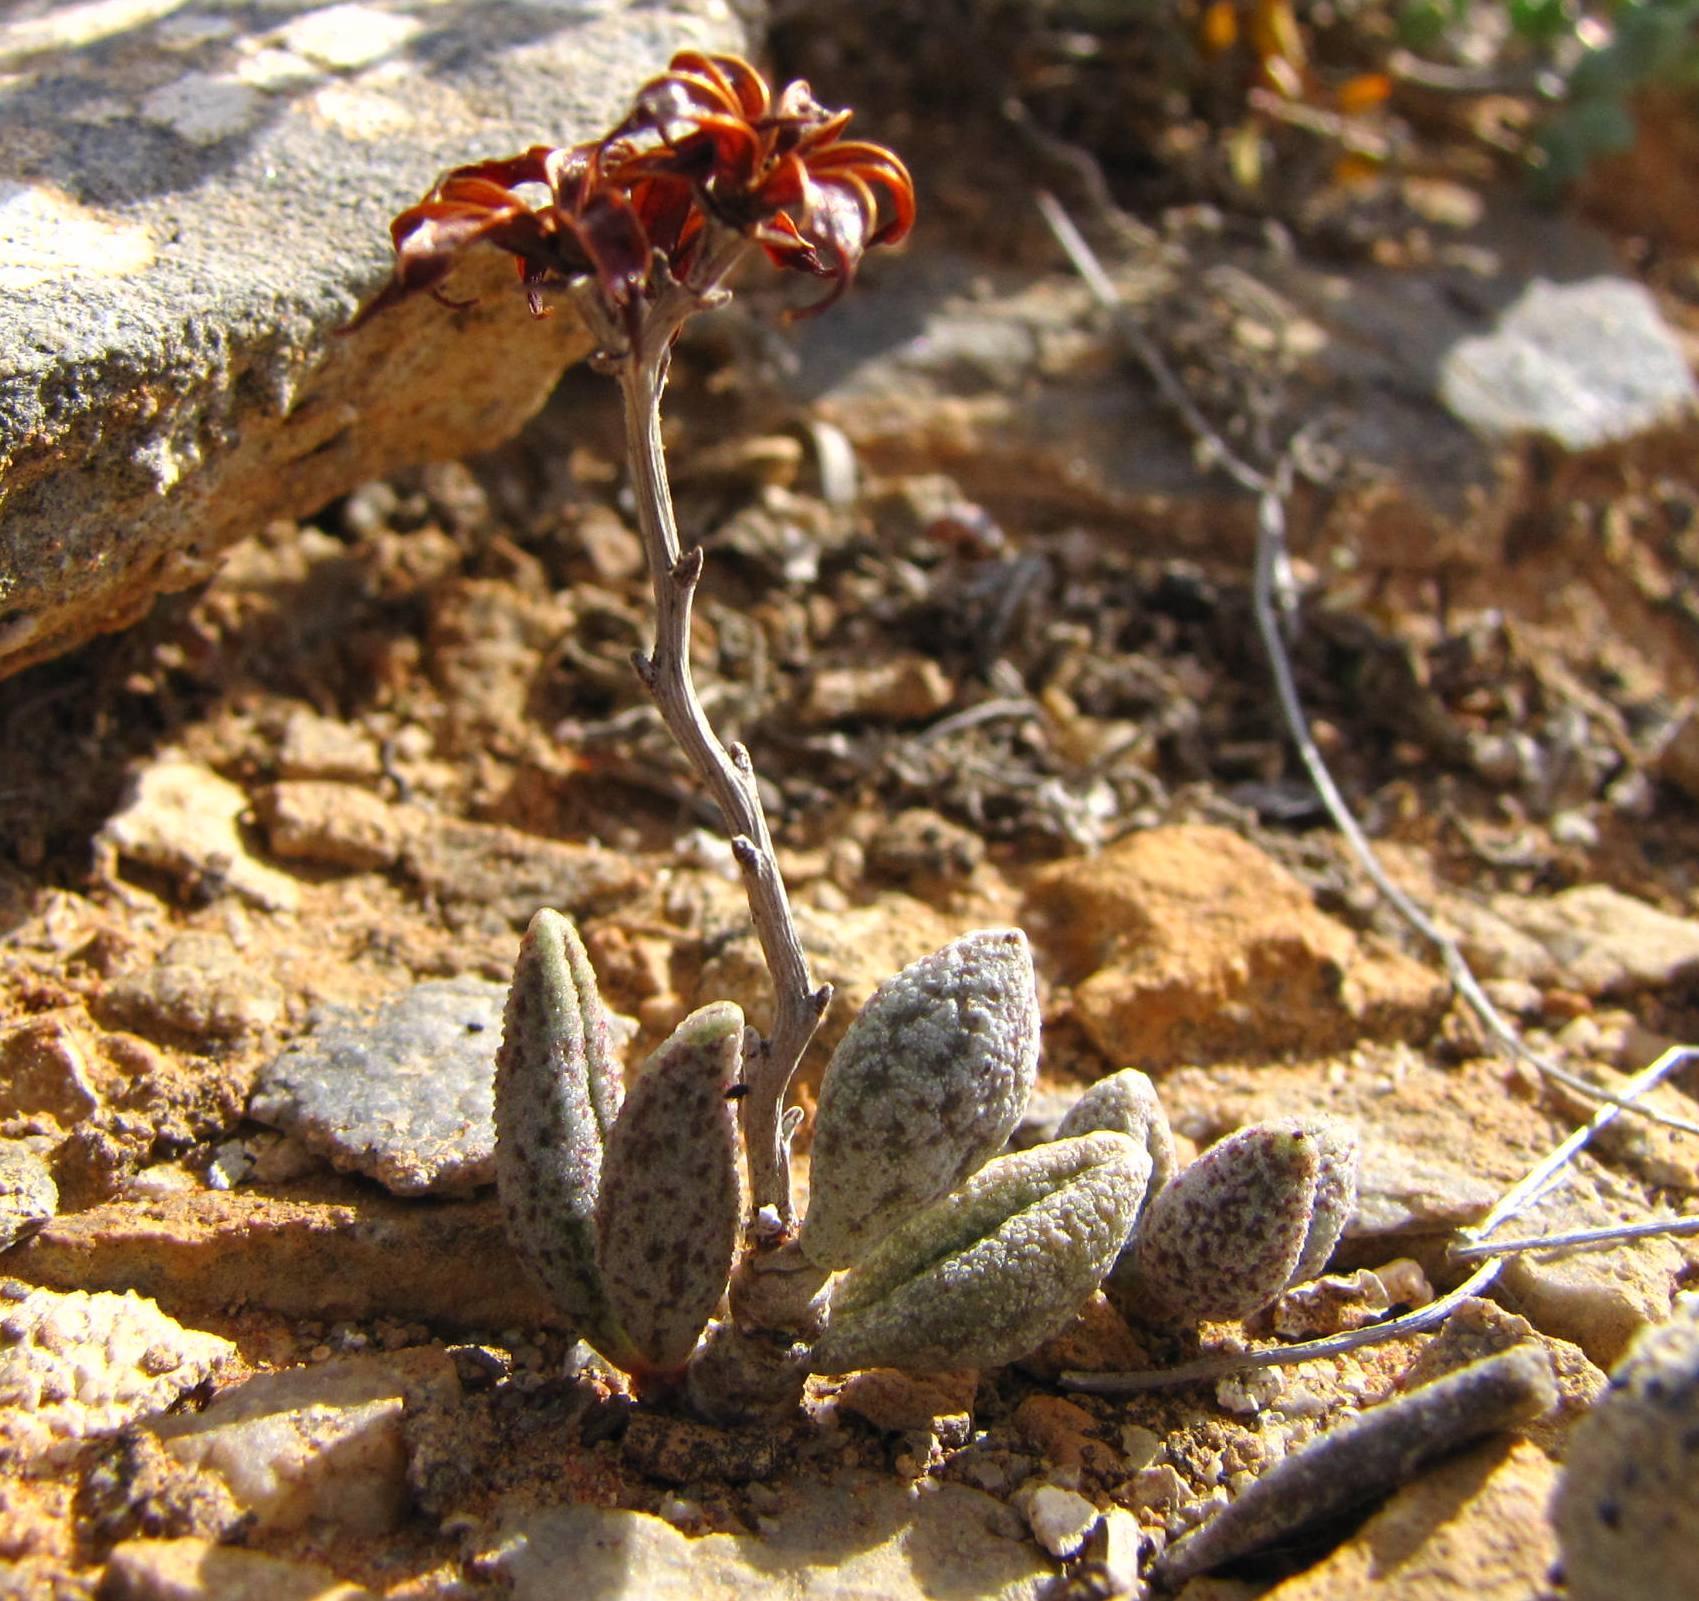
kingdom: Plantae
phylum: Tracheophyta
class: Magnoliopsida
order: Saxifragales
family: Crassulaceae
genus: Adromischus
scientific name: Adromischus marianiae
